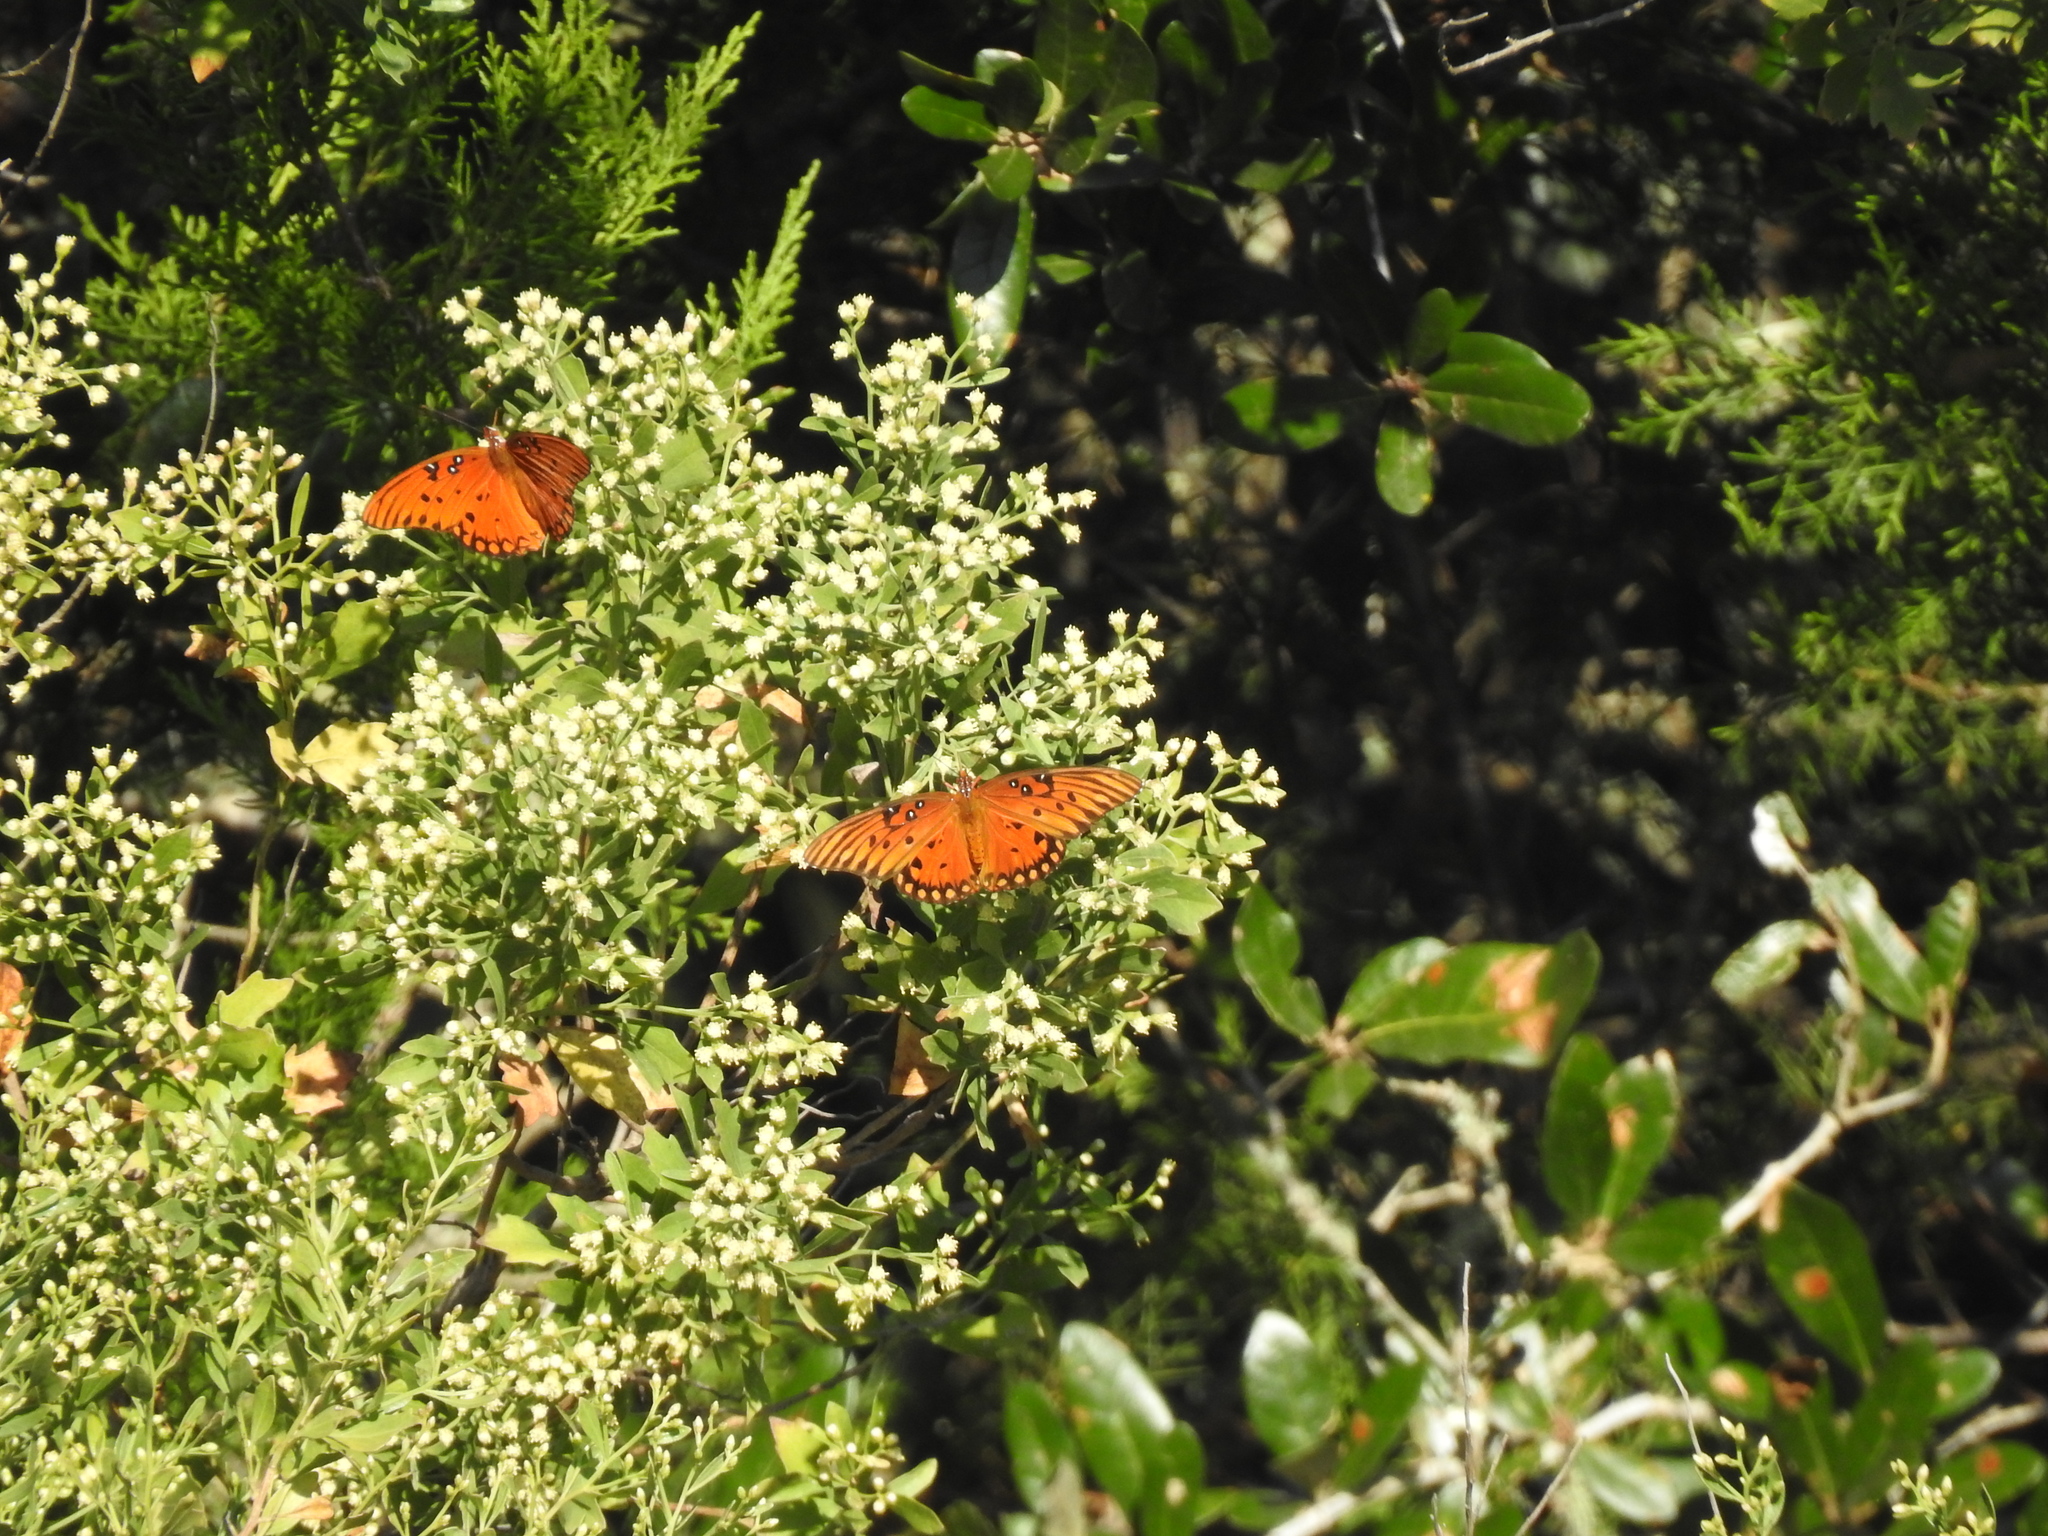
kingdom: Animalia
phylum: Arthropoda
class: Insecta
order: Lepidoptera
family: Nymphalidae
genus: Dione
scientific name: Dione vanillae
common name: Gulf fritillary
